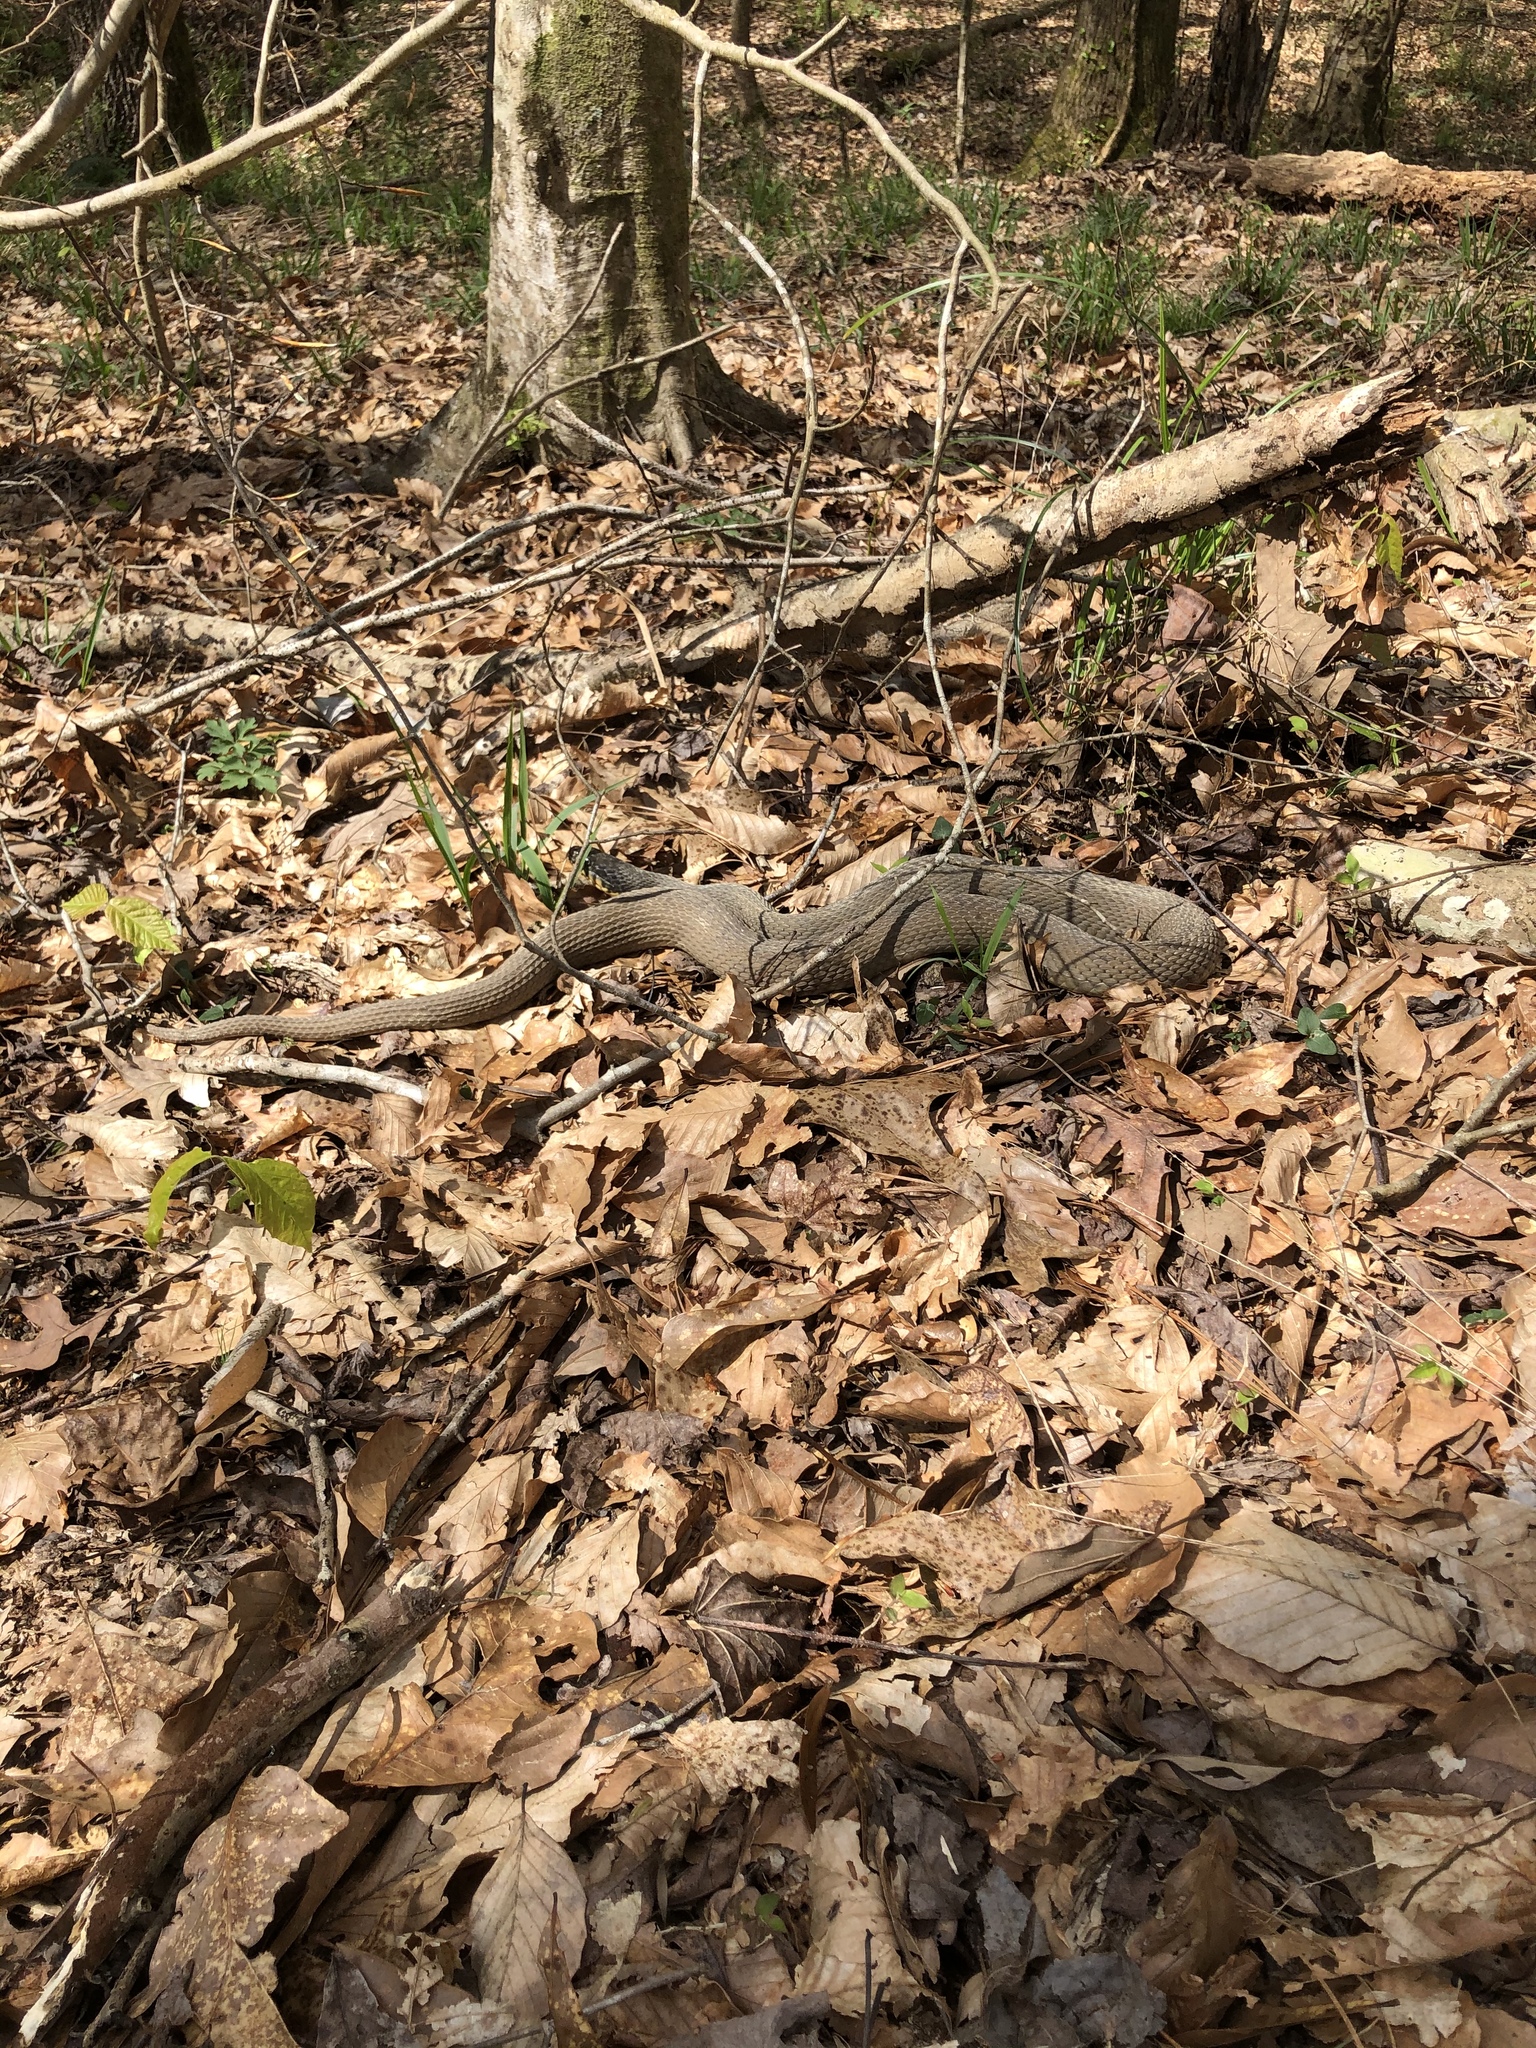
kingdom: Animalia
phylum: Chordata
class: Squamata
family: Colubridae
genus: Nerodia
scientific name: Nerodia erythrogaster
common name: Plainbelly water snake
